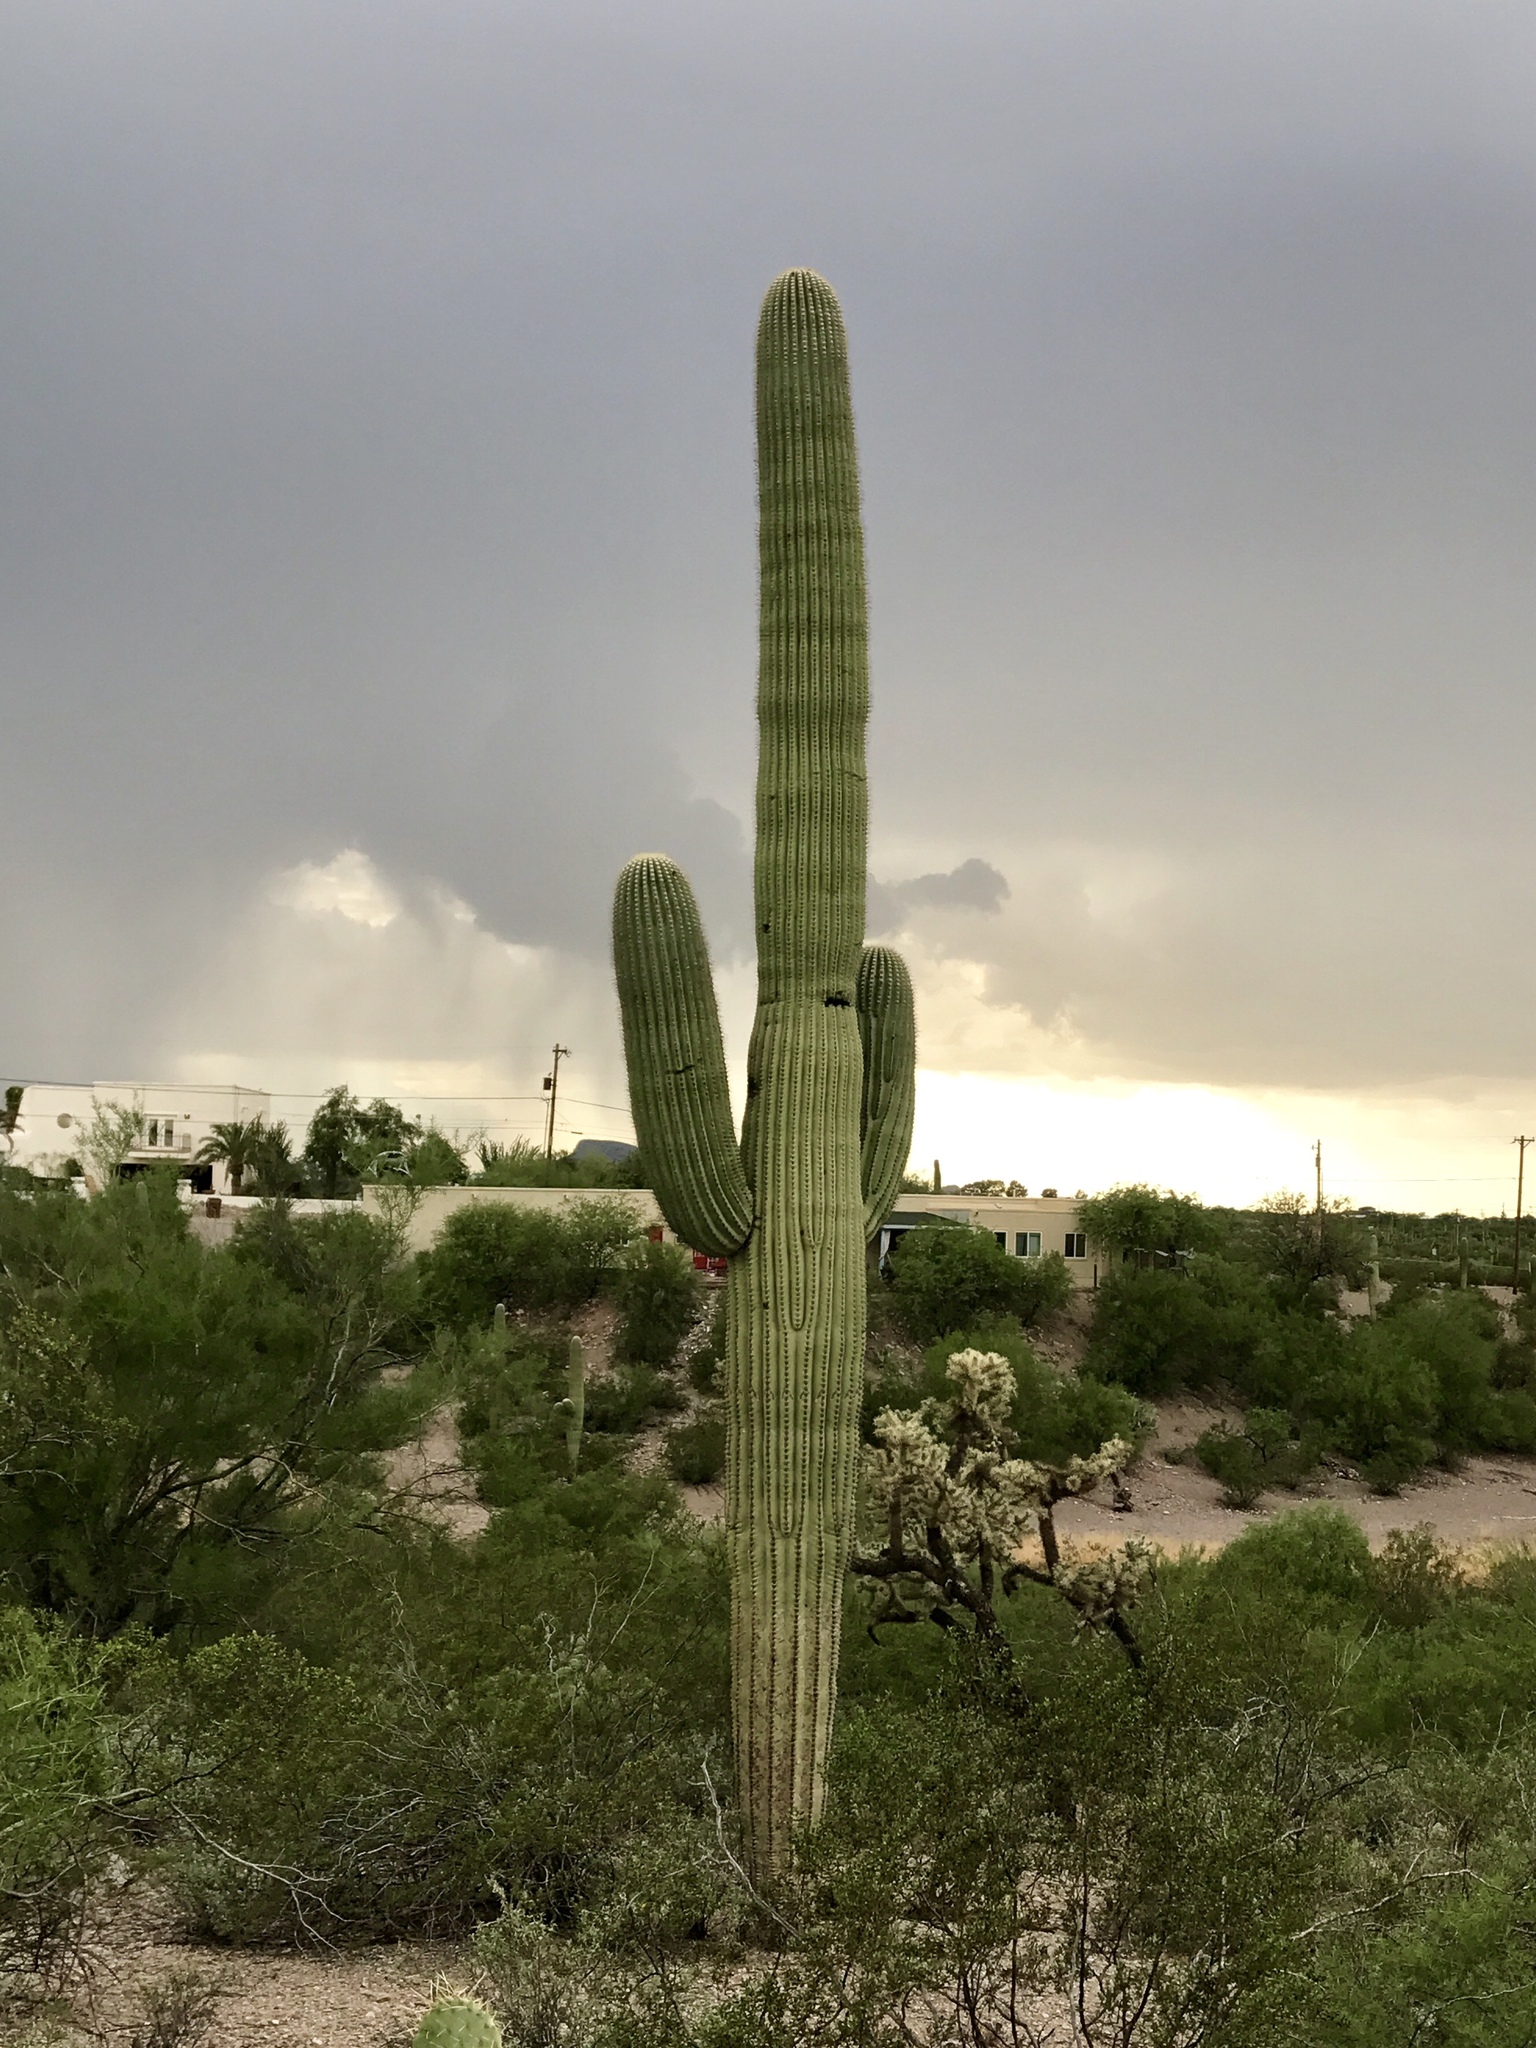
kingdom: Plantae
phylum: Tracheophyta
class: Magnoliopsida
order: Caryophyllales
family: Cactaceae
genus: Carnegiea
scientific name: Carnegiea gigantea
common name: Saguaro
